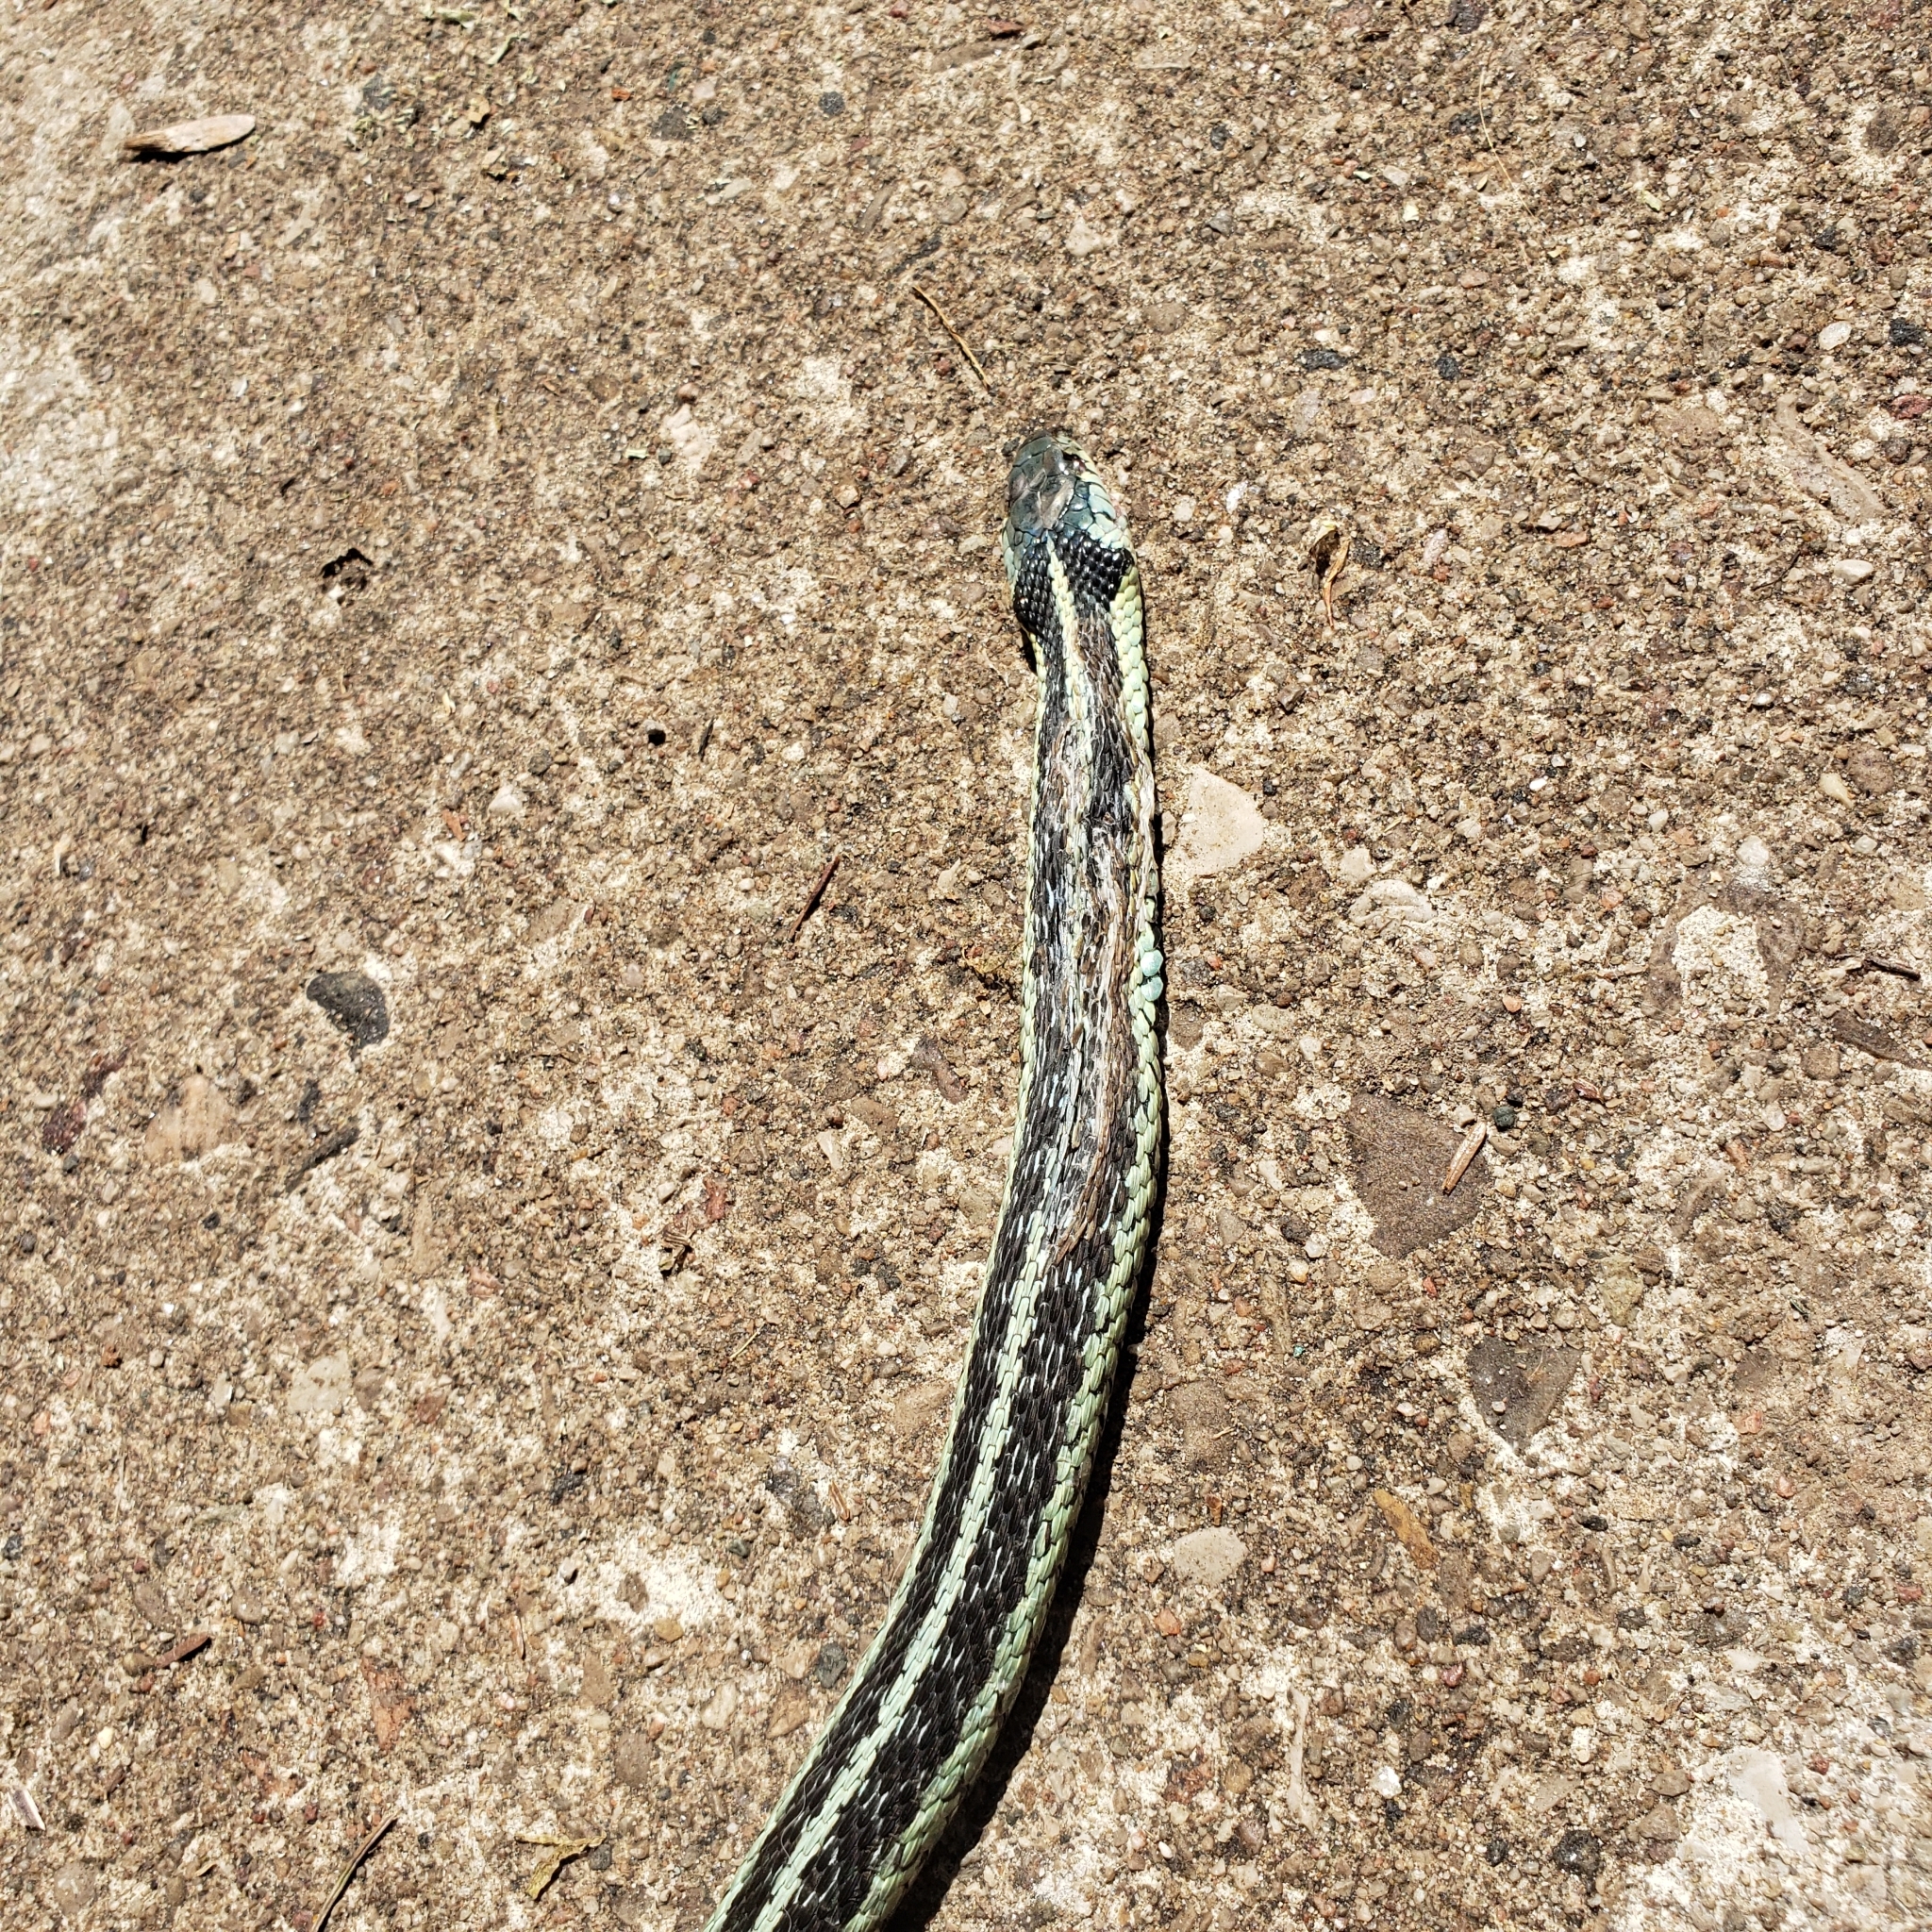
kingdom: Animalia
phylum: Chordata
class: Squamata
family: Colubridae
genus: Thamnophis
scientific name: Thamnophis sirtalis
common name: Common garter snake
